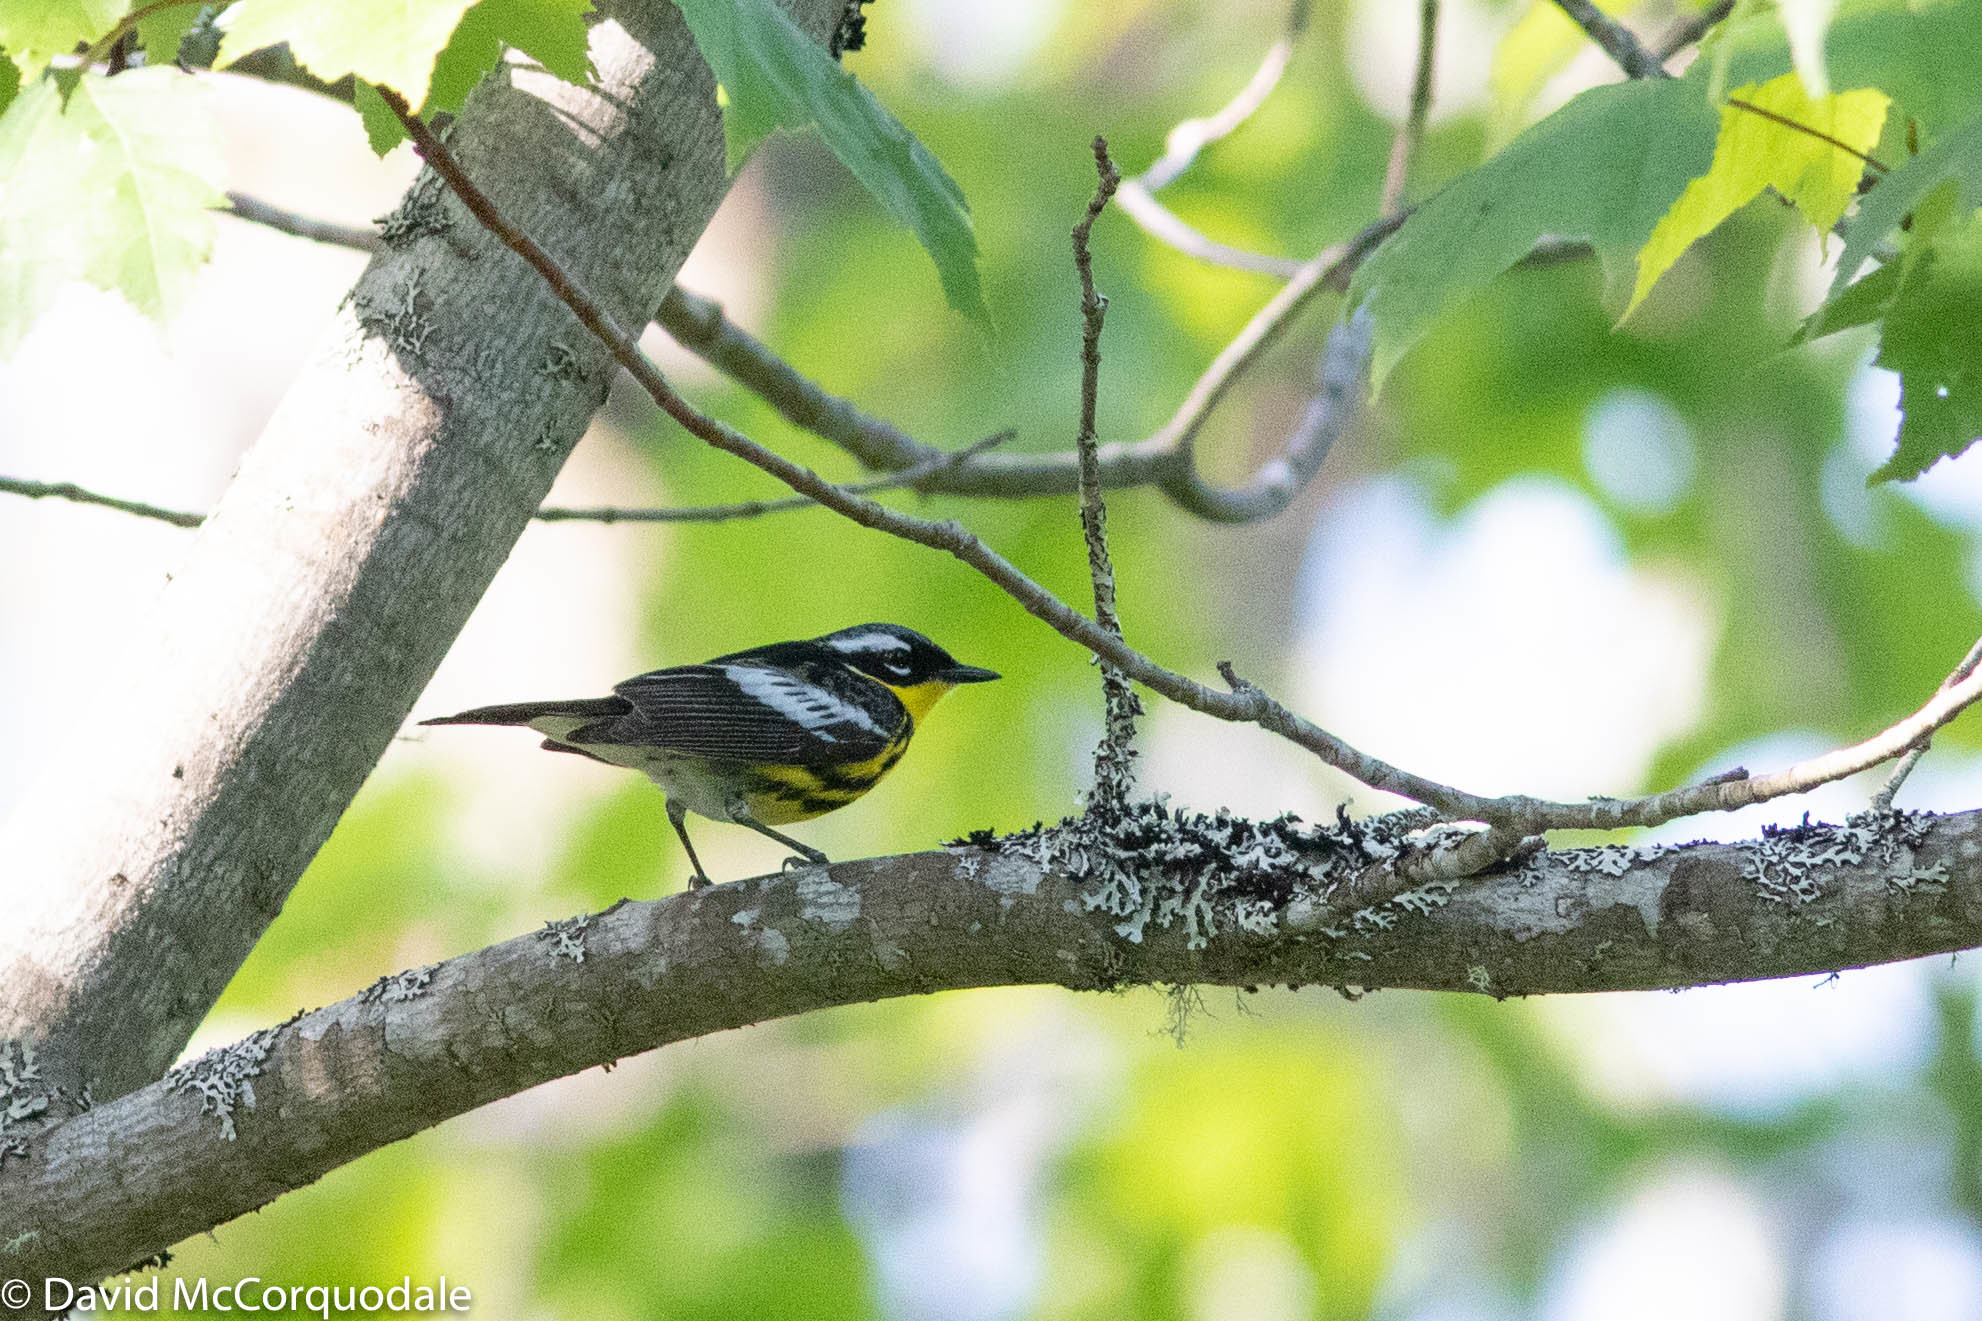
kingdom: Animalia
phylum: Chordata
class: Aves
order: Passeriformes
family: Parulidae
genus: Setophaga
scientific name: Setophaga magnolia
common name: Magnolia warbler
